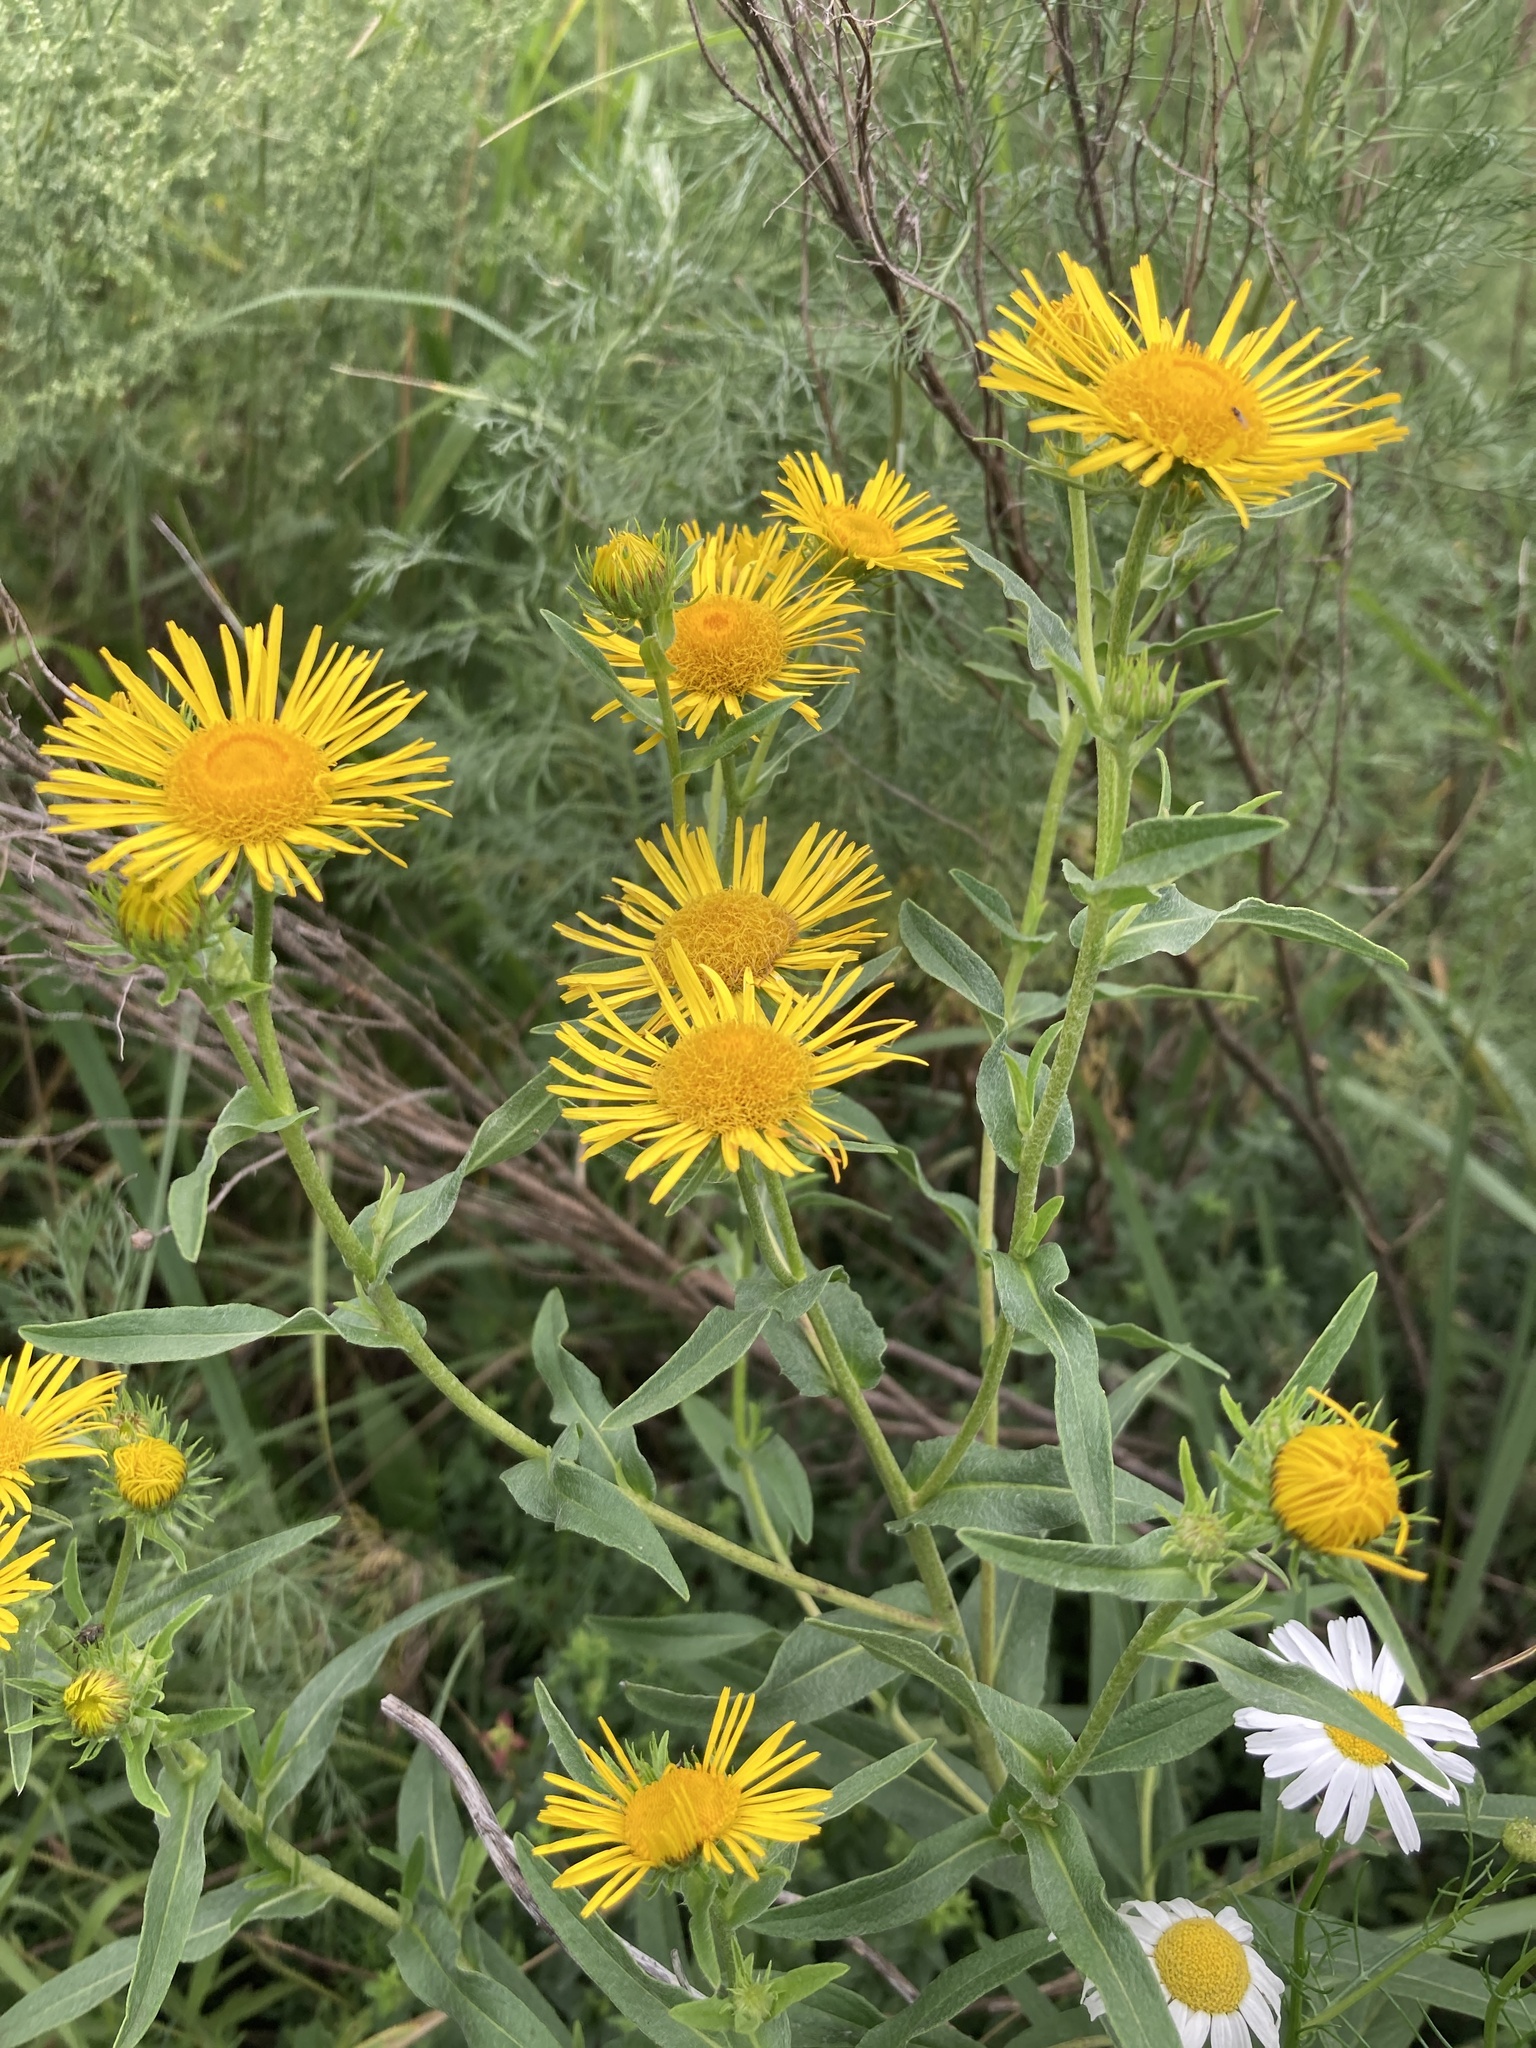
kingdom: Plantae
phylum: Tracheophyta
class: Magnoliopsida
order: Asterales
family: Asteraceae
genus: Pentanema
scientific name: Pentanema britannicum
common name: British elecampane
